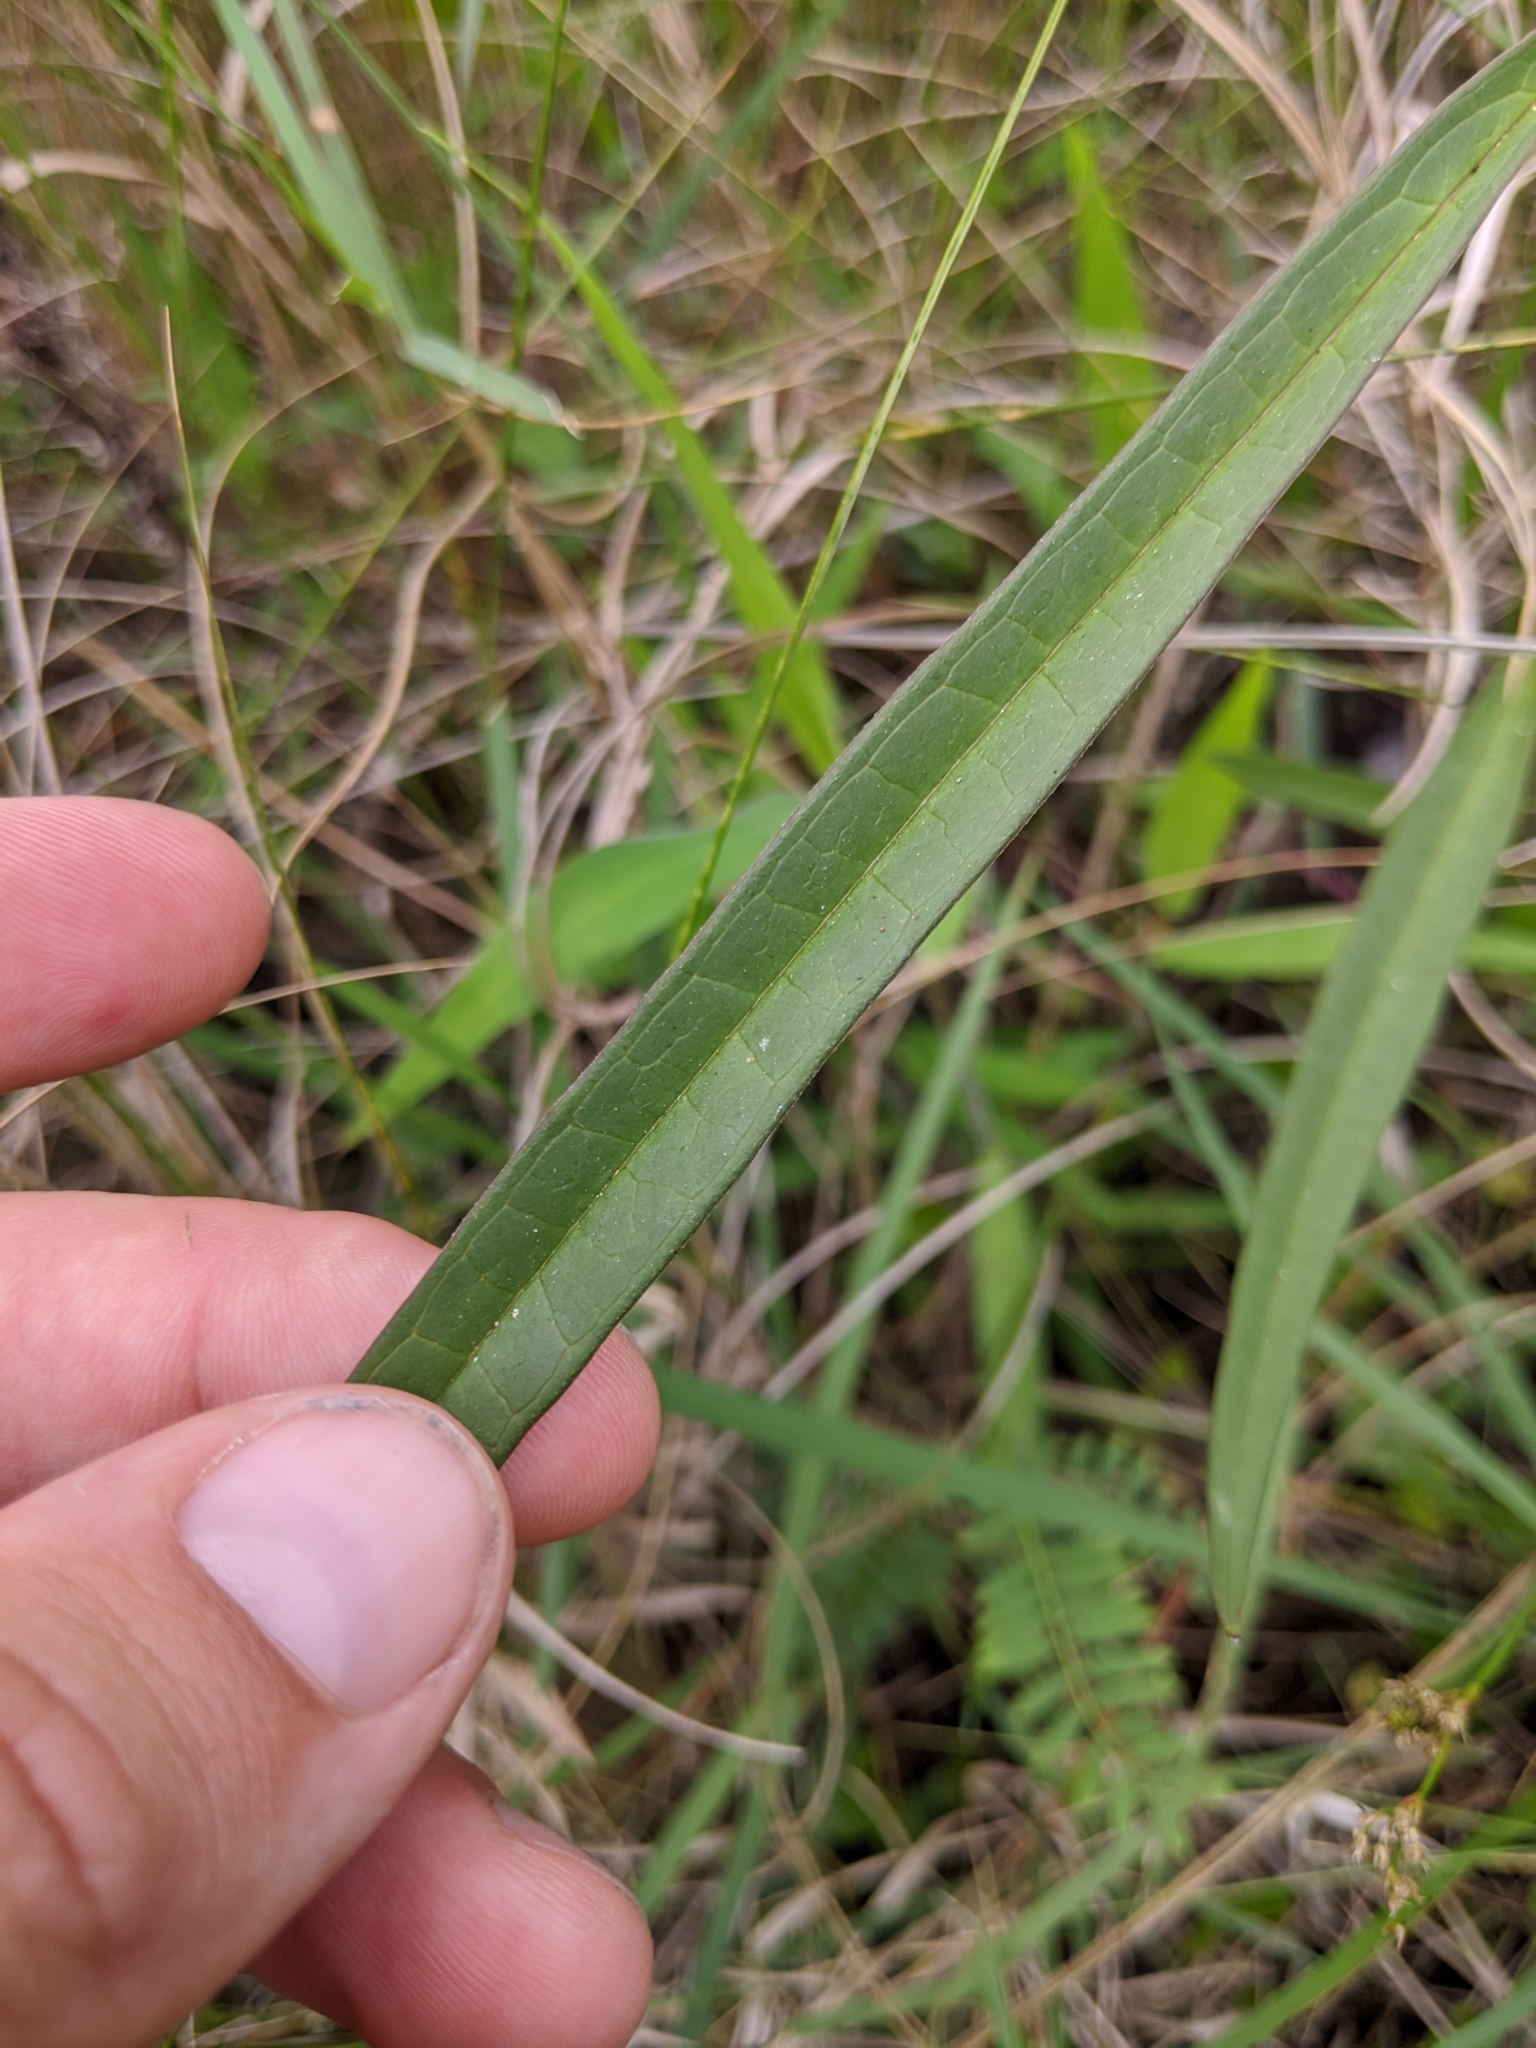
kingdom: Plantae
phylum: Tracheophyta
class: Magnoliopsida
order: Gentianales
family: Apocynaceae
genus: Asclepias
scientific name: Asclepias lanceolata
